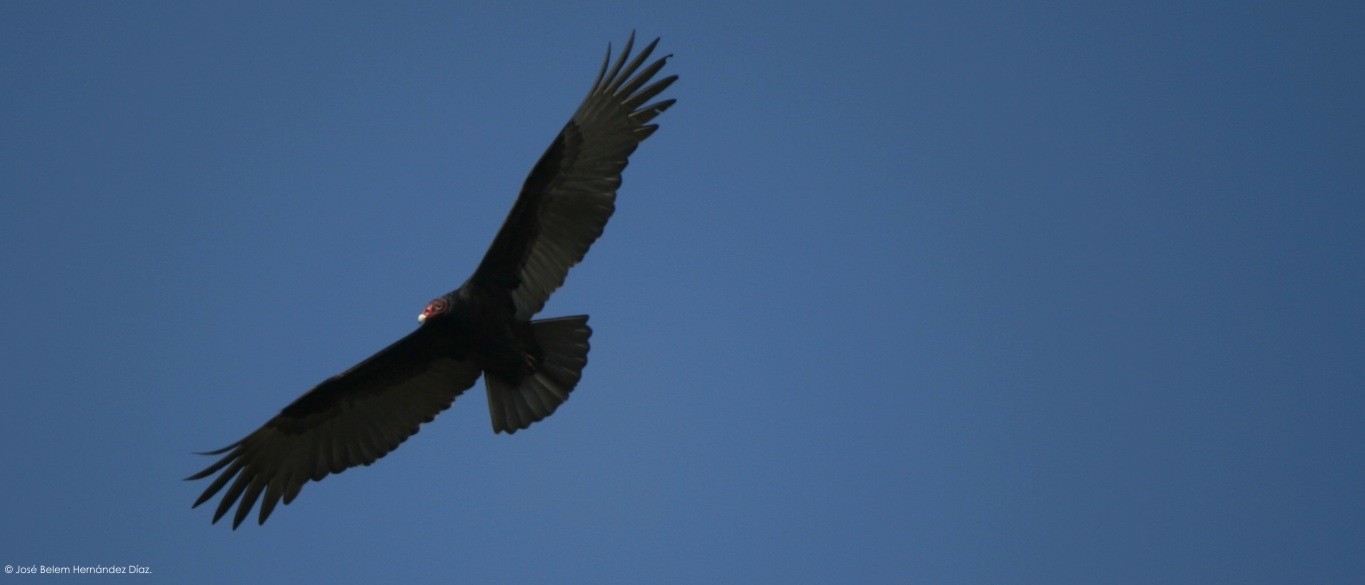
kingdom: Animalia
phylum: Chordata
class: Aves
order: Accipitriformes
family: Cathartidae
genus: Cathartes
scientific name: Cathartes aura
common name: Turkey vulture
